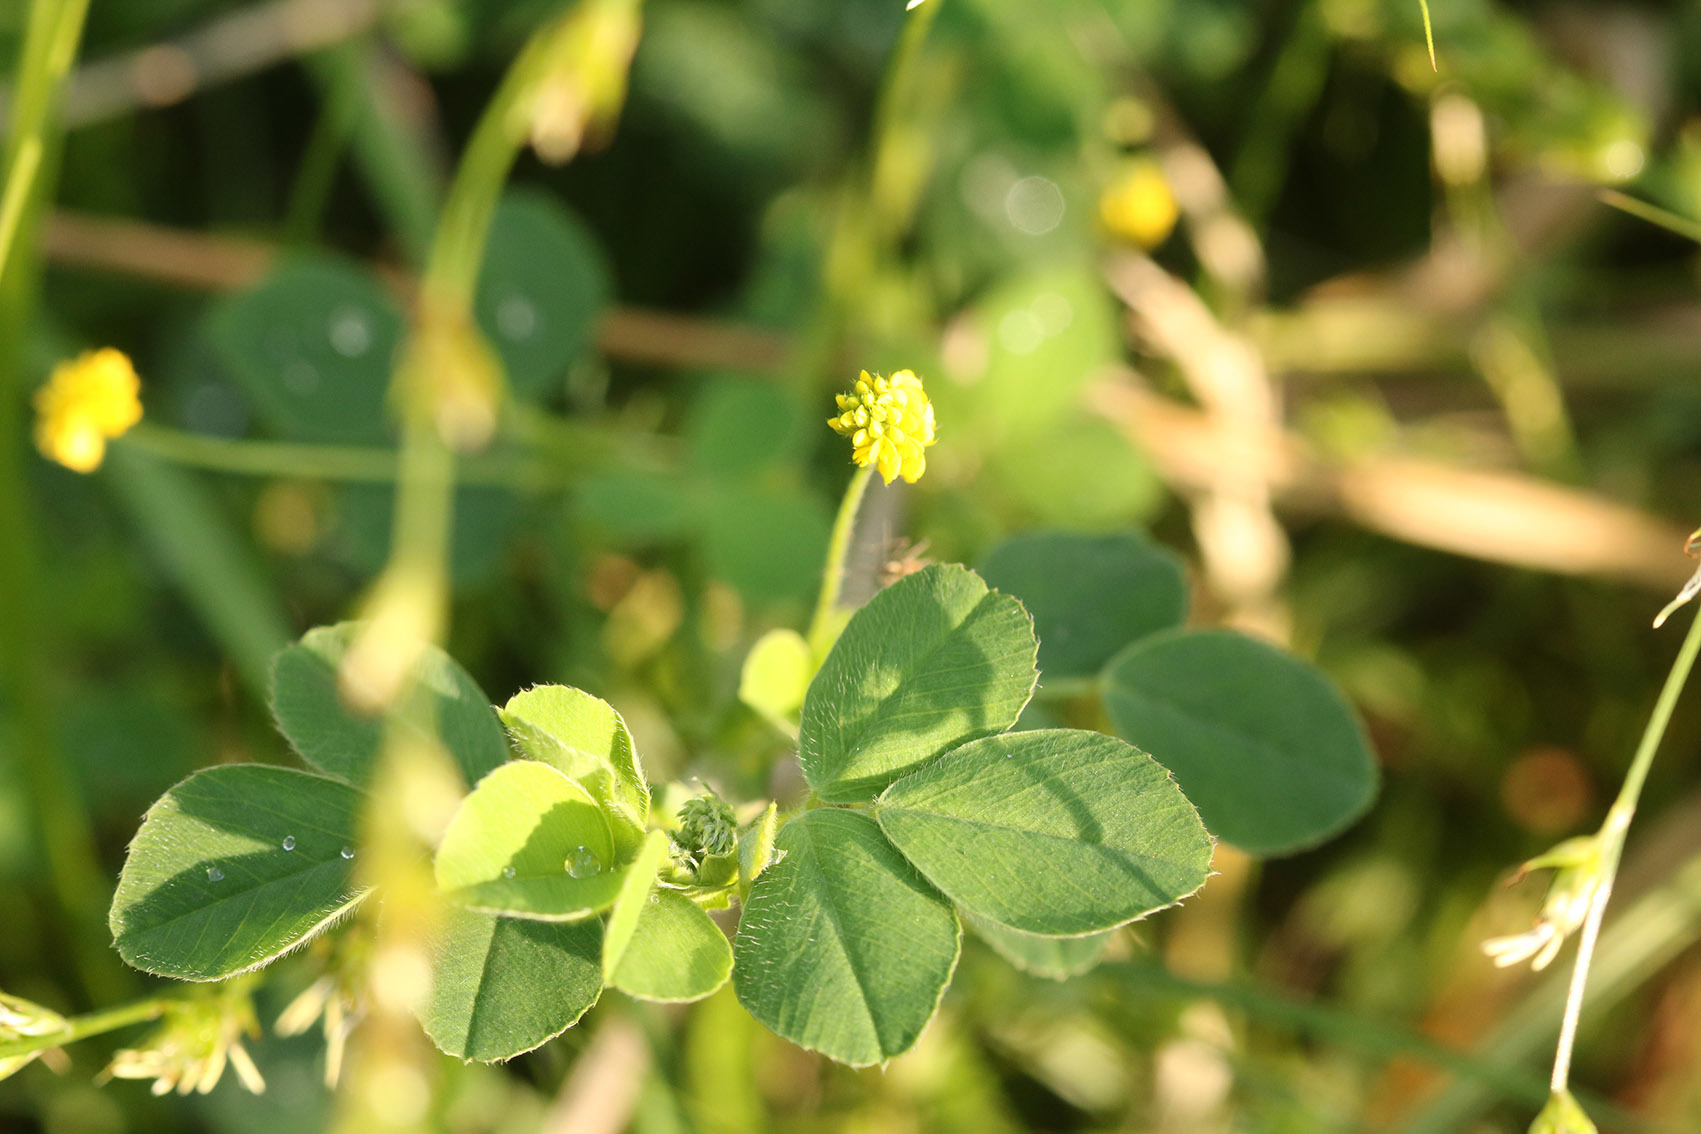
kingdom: Plantae
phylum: Tracheophyta
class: Magnoliopsida
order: Fabales
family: Fabaceae
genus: Medicago
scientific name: Medicago lupulina
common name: Black medick
